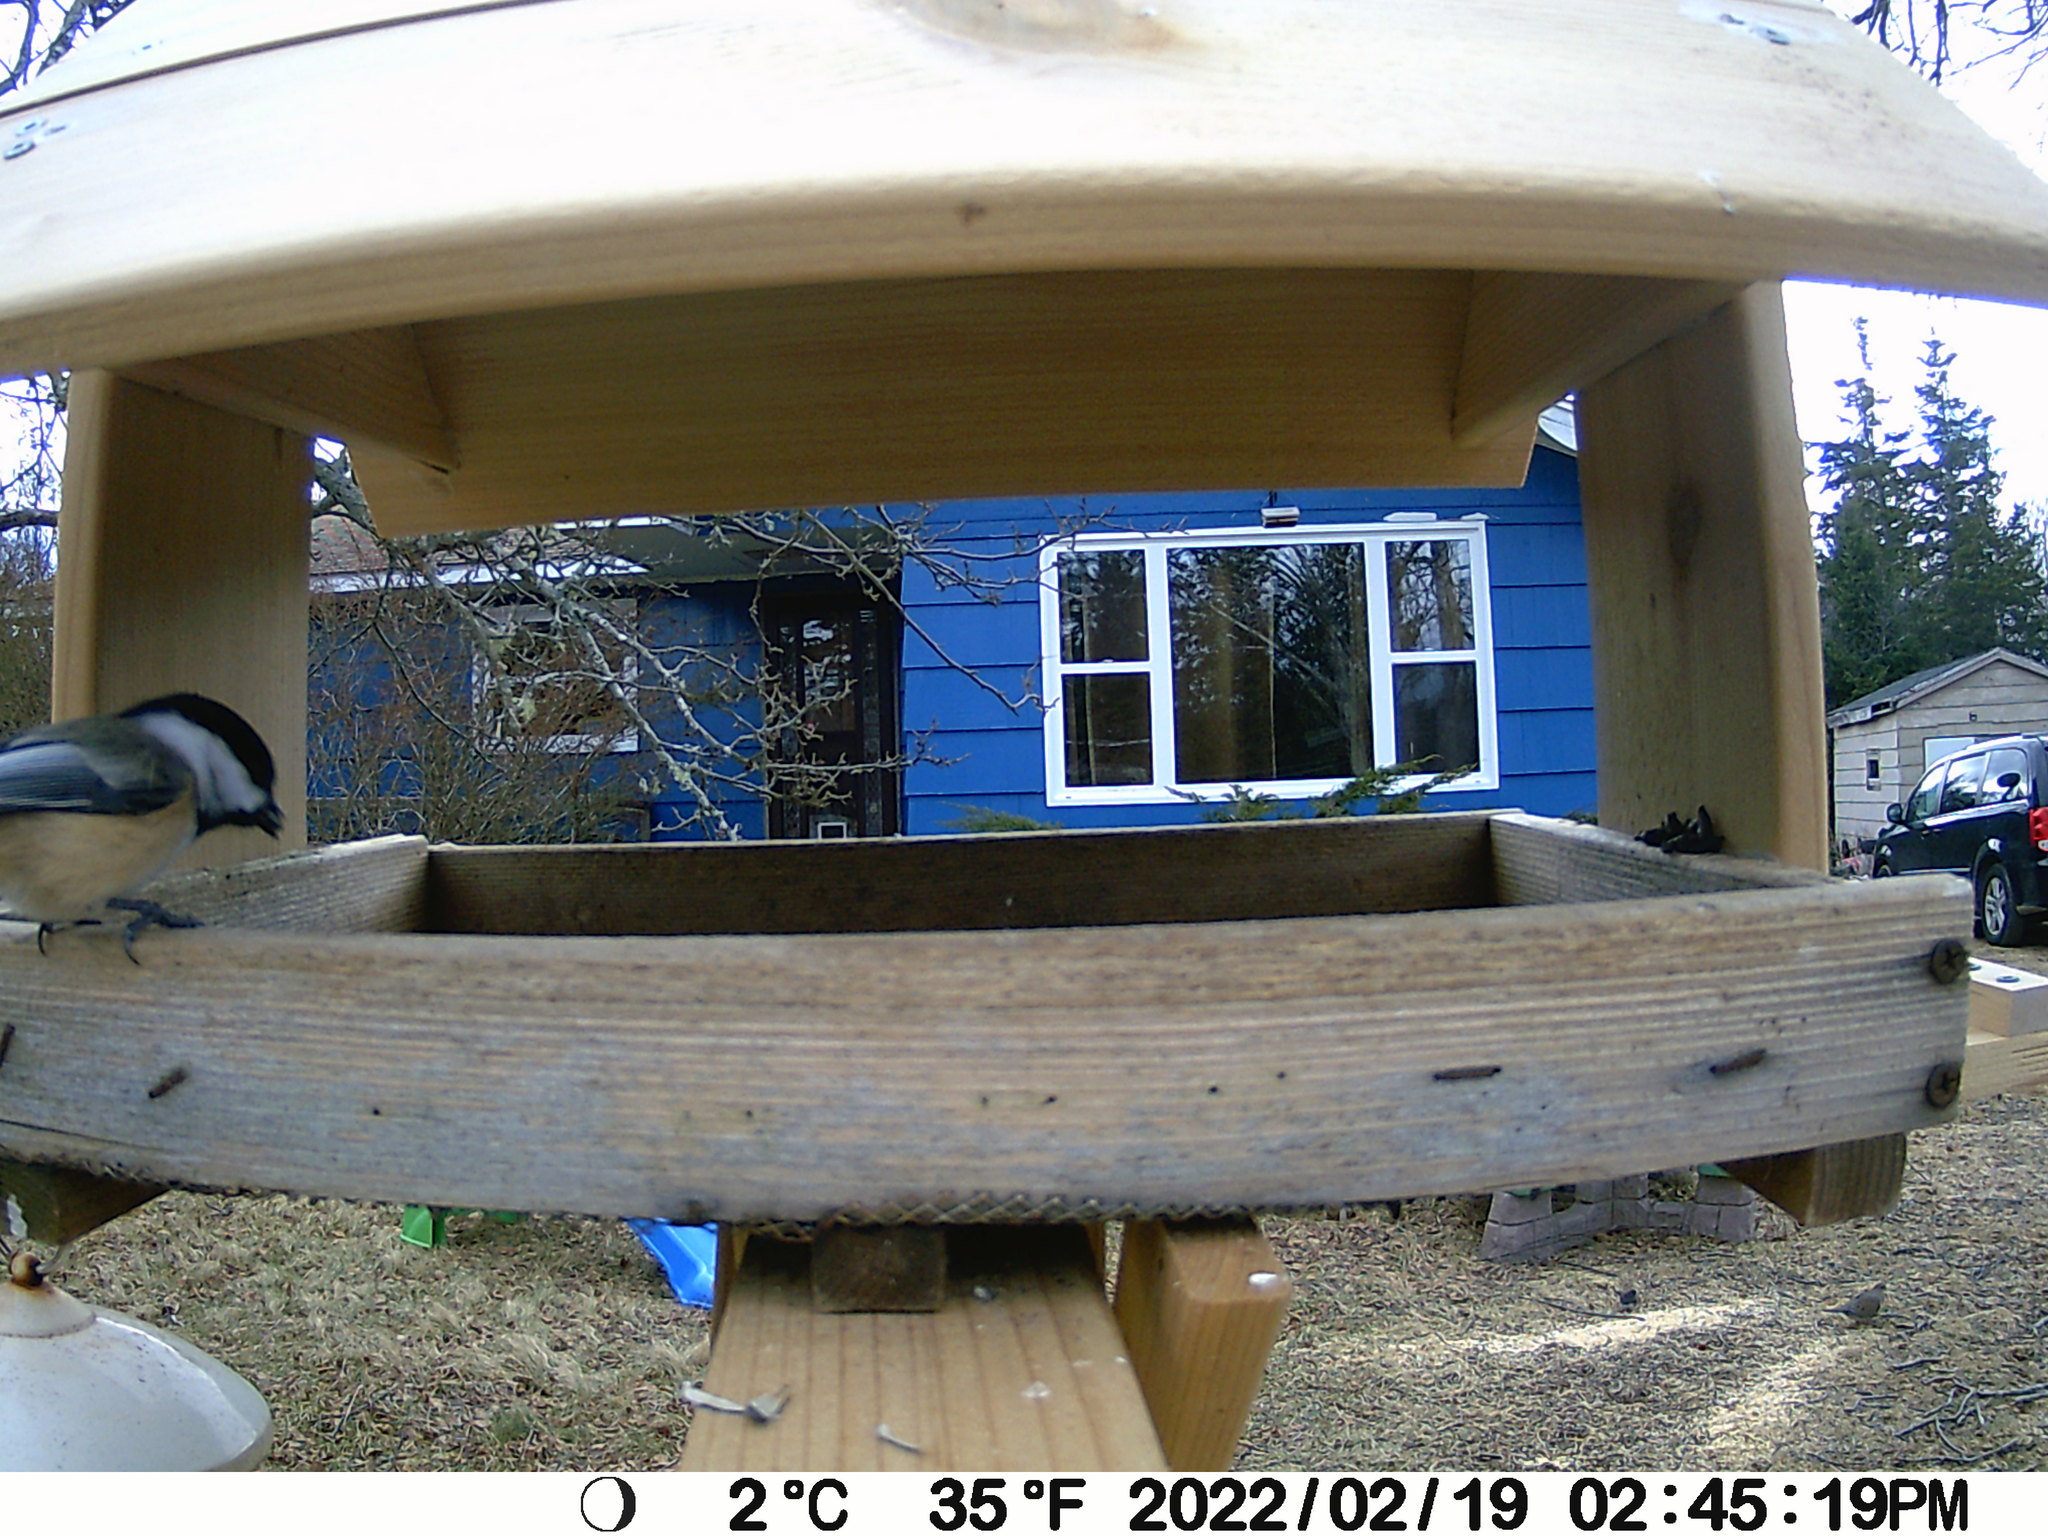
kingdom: Animalia
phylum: Chordata
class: Aves
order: Columbiformes
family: Columbidae
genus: Zenaida
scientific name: Zenaida macroura
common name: Mourning dove
